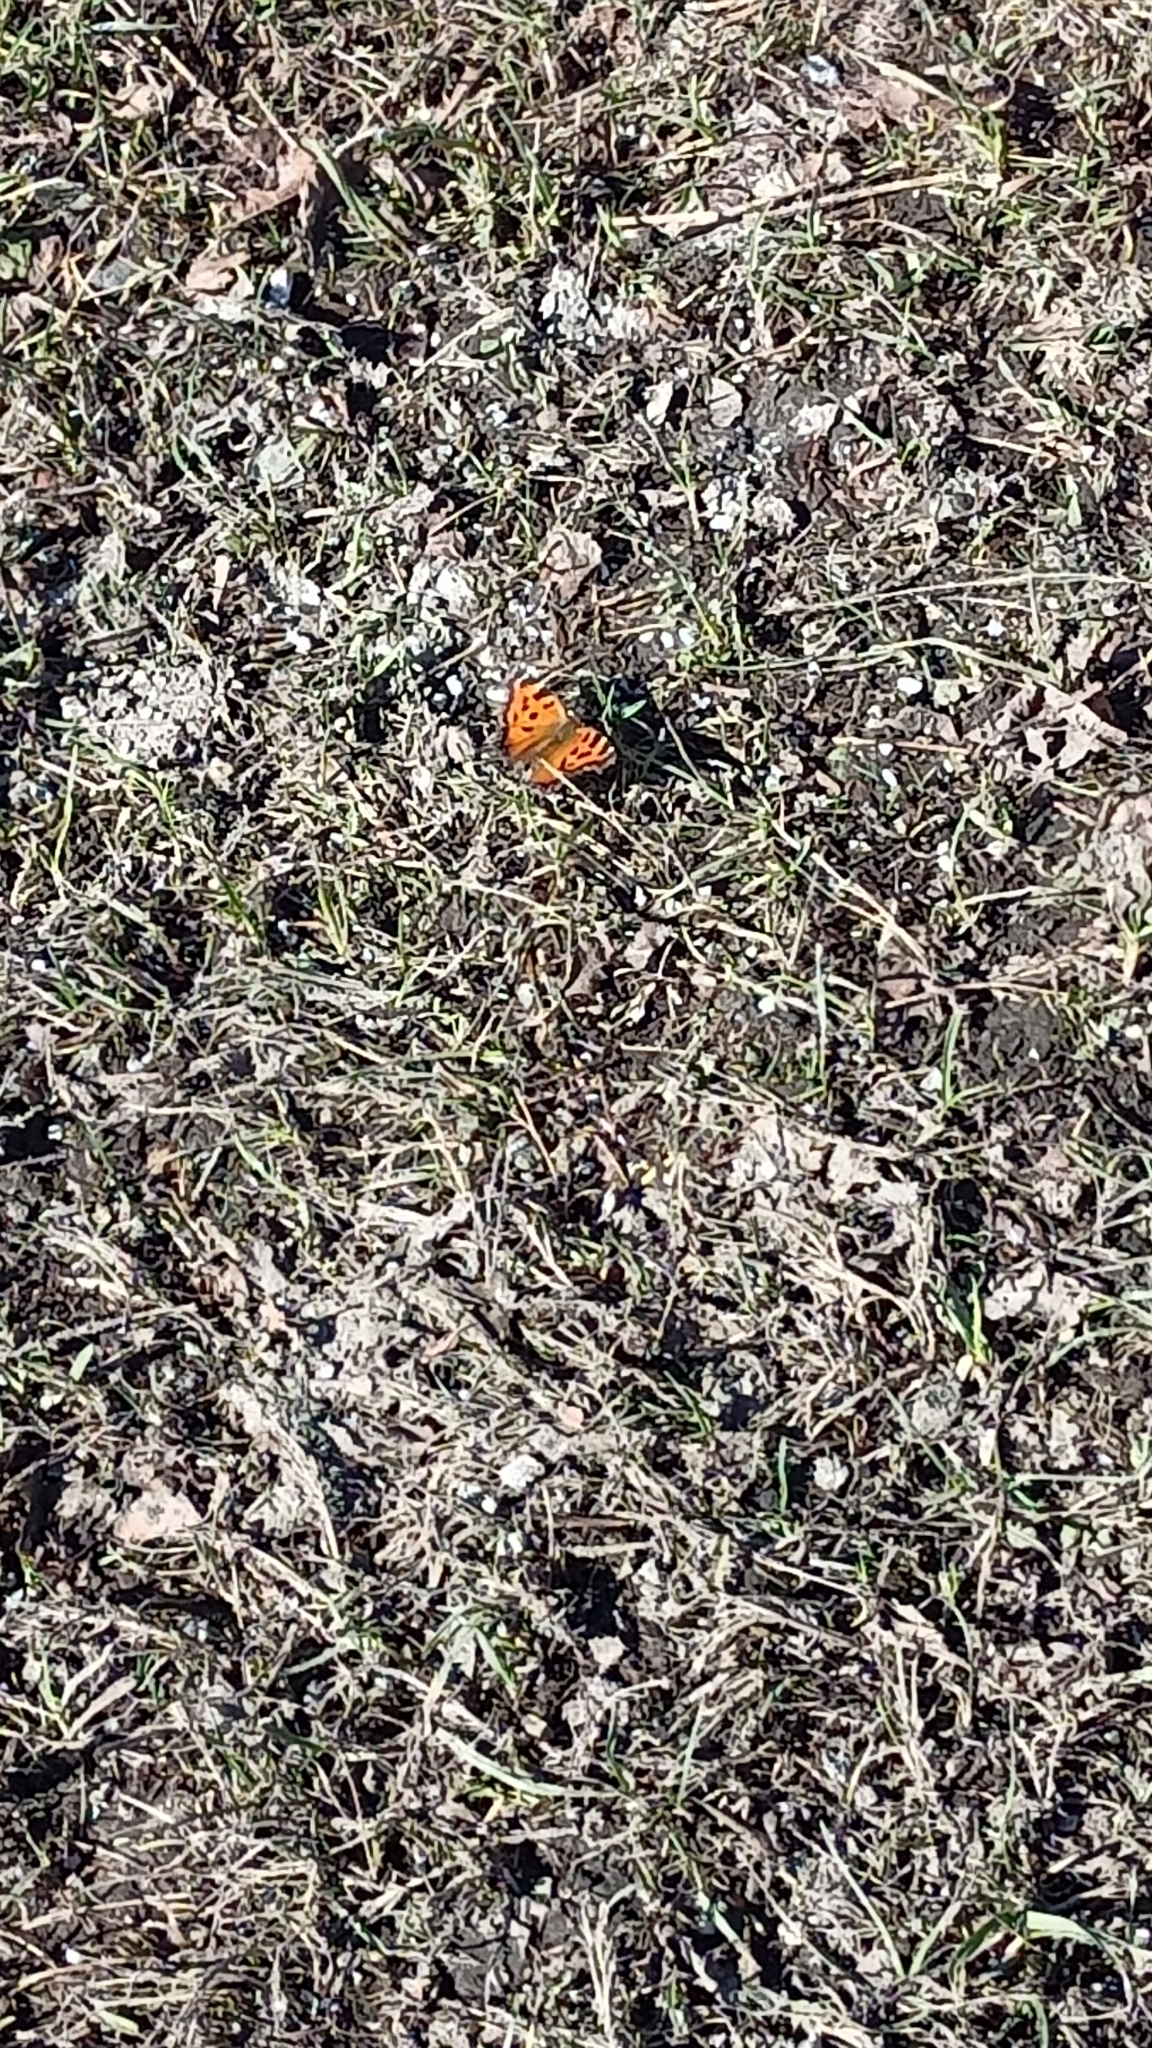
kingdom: Animalia
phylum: Arthropoda
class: Insecta
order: Lepidoptera
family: Nymphalidae
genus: Nymphalis
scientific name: Nymphalis xanthomelas
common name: Scarce tortoiseshell
